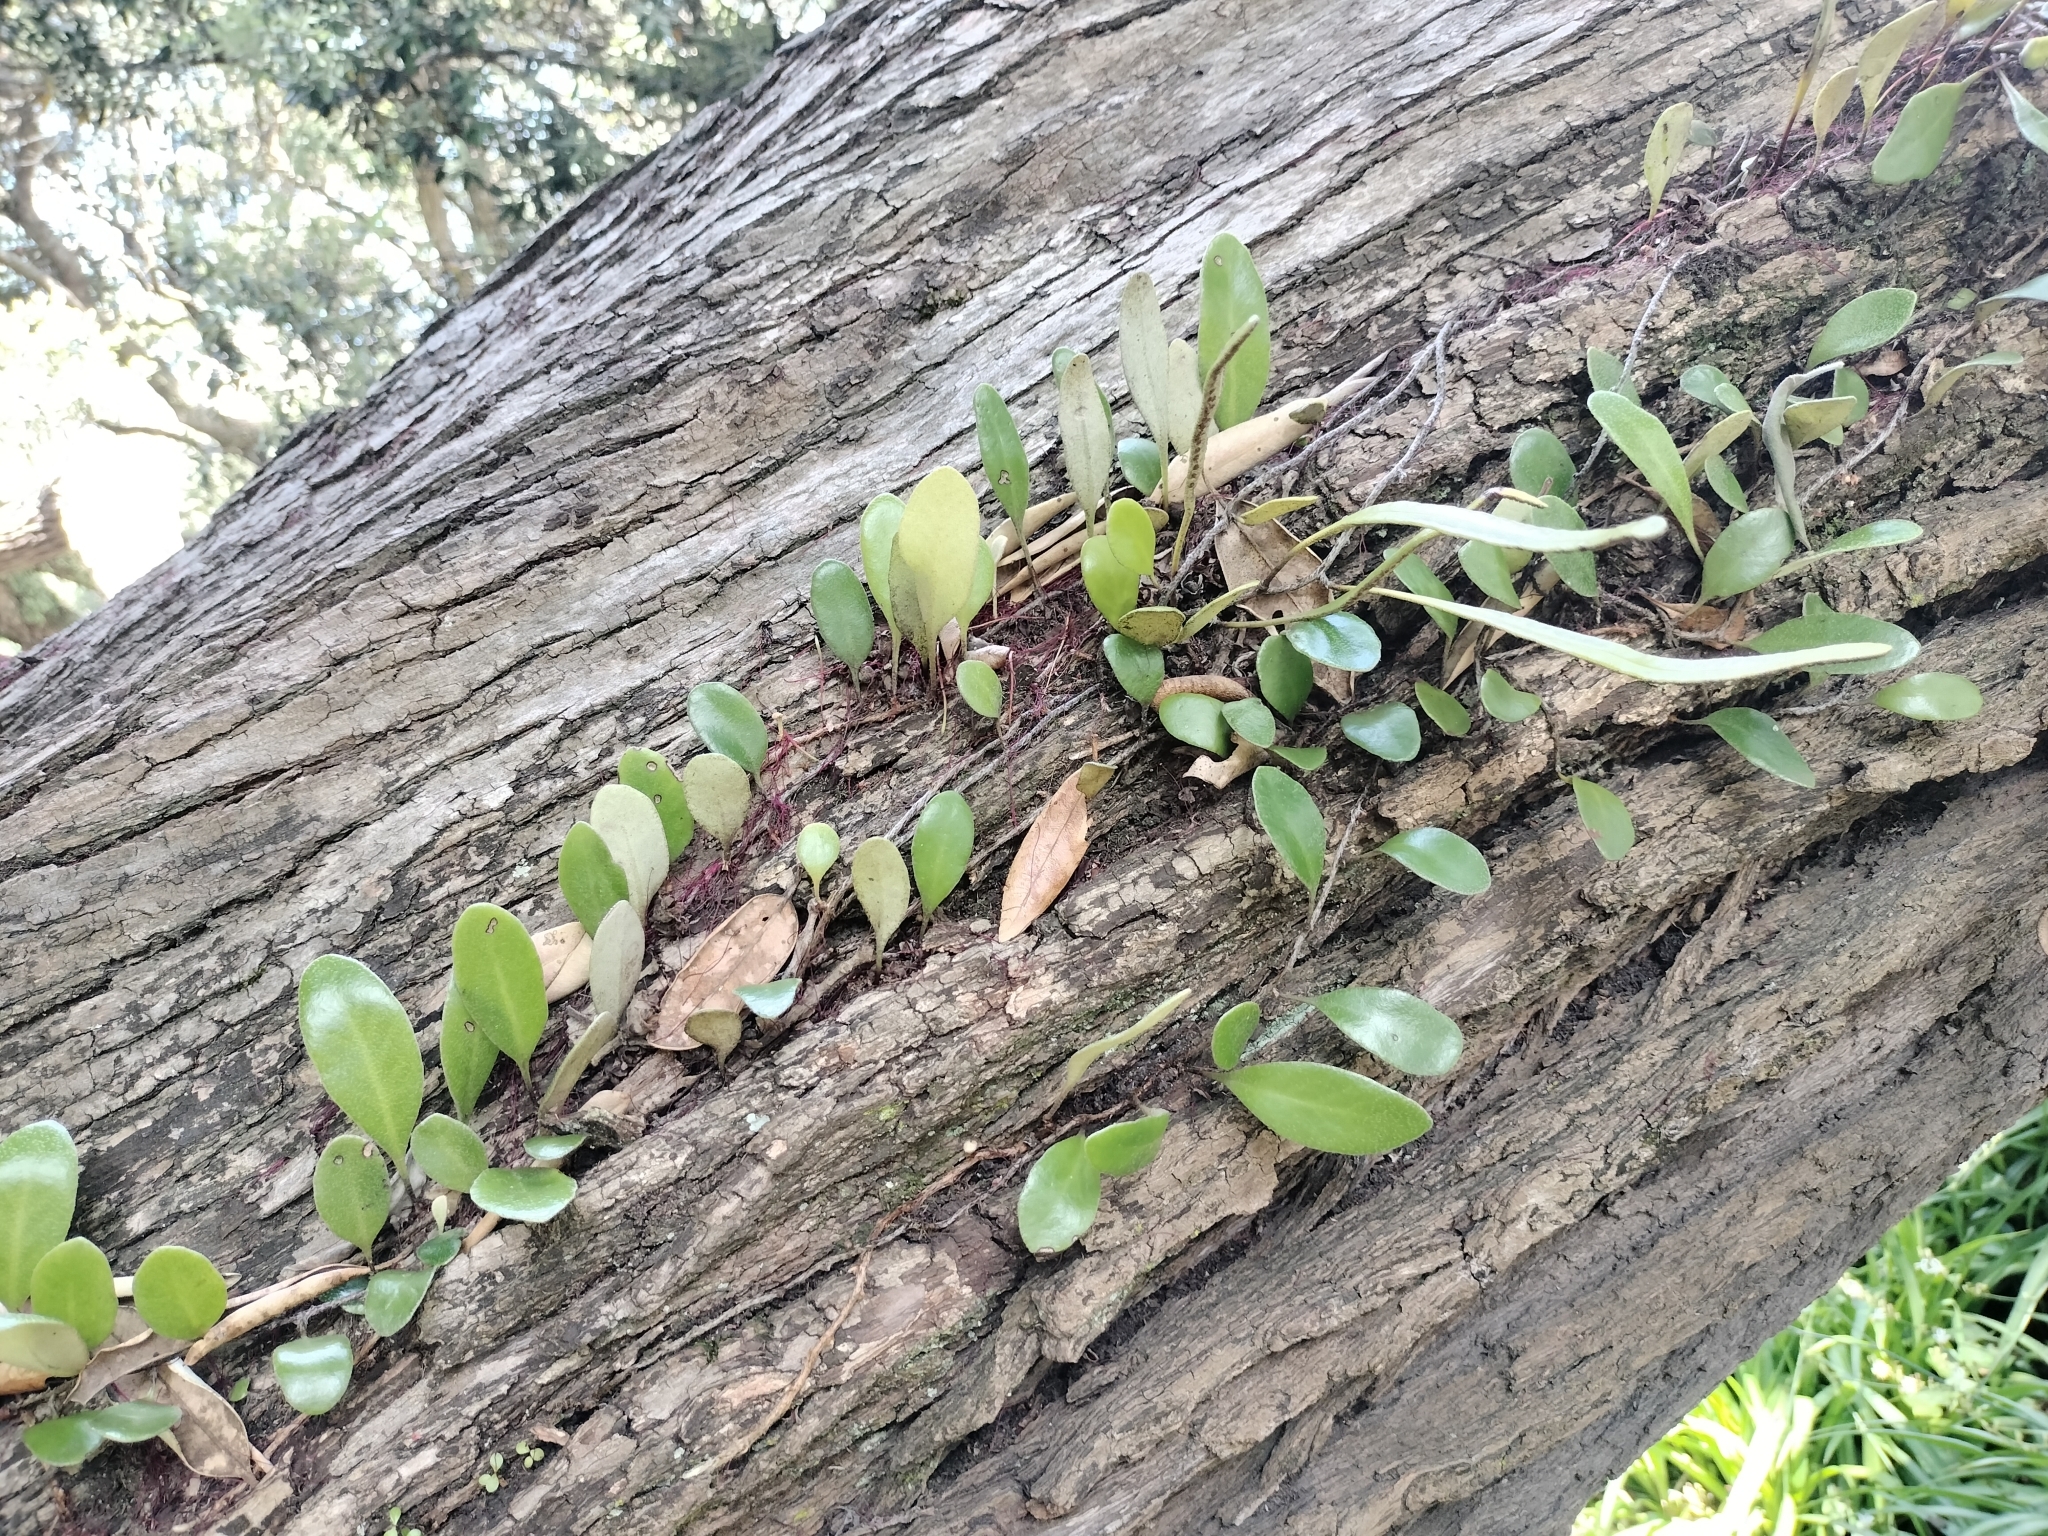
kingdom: Plantae
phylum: Tracheophyta
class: Polypodiopsida
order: Polypodiales
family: Polypodiaceae
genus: Pyrrosia
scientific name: Pyrrosia eleagnifolia
